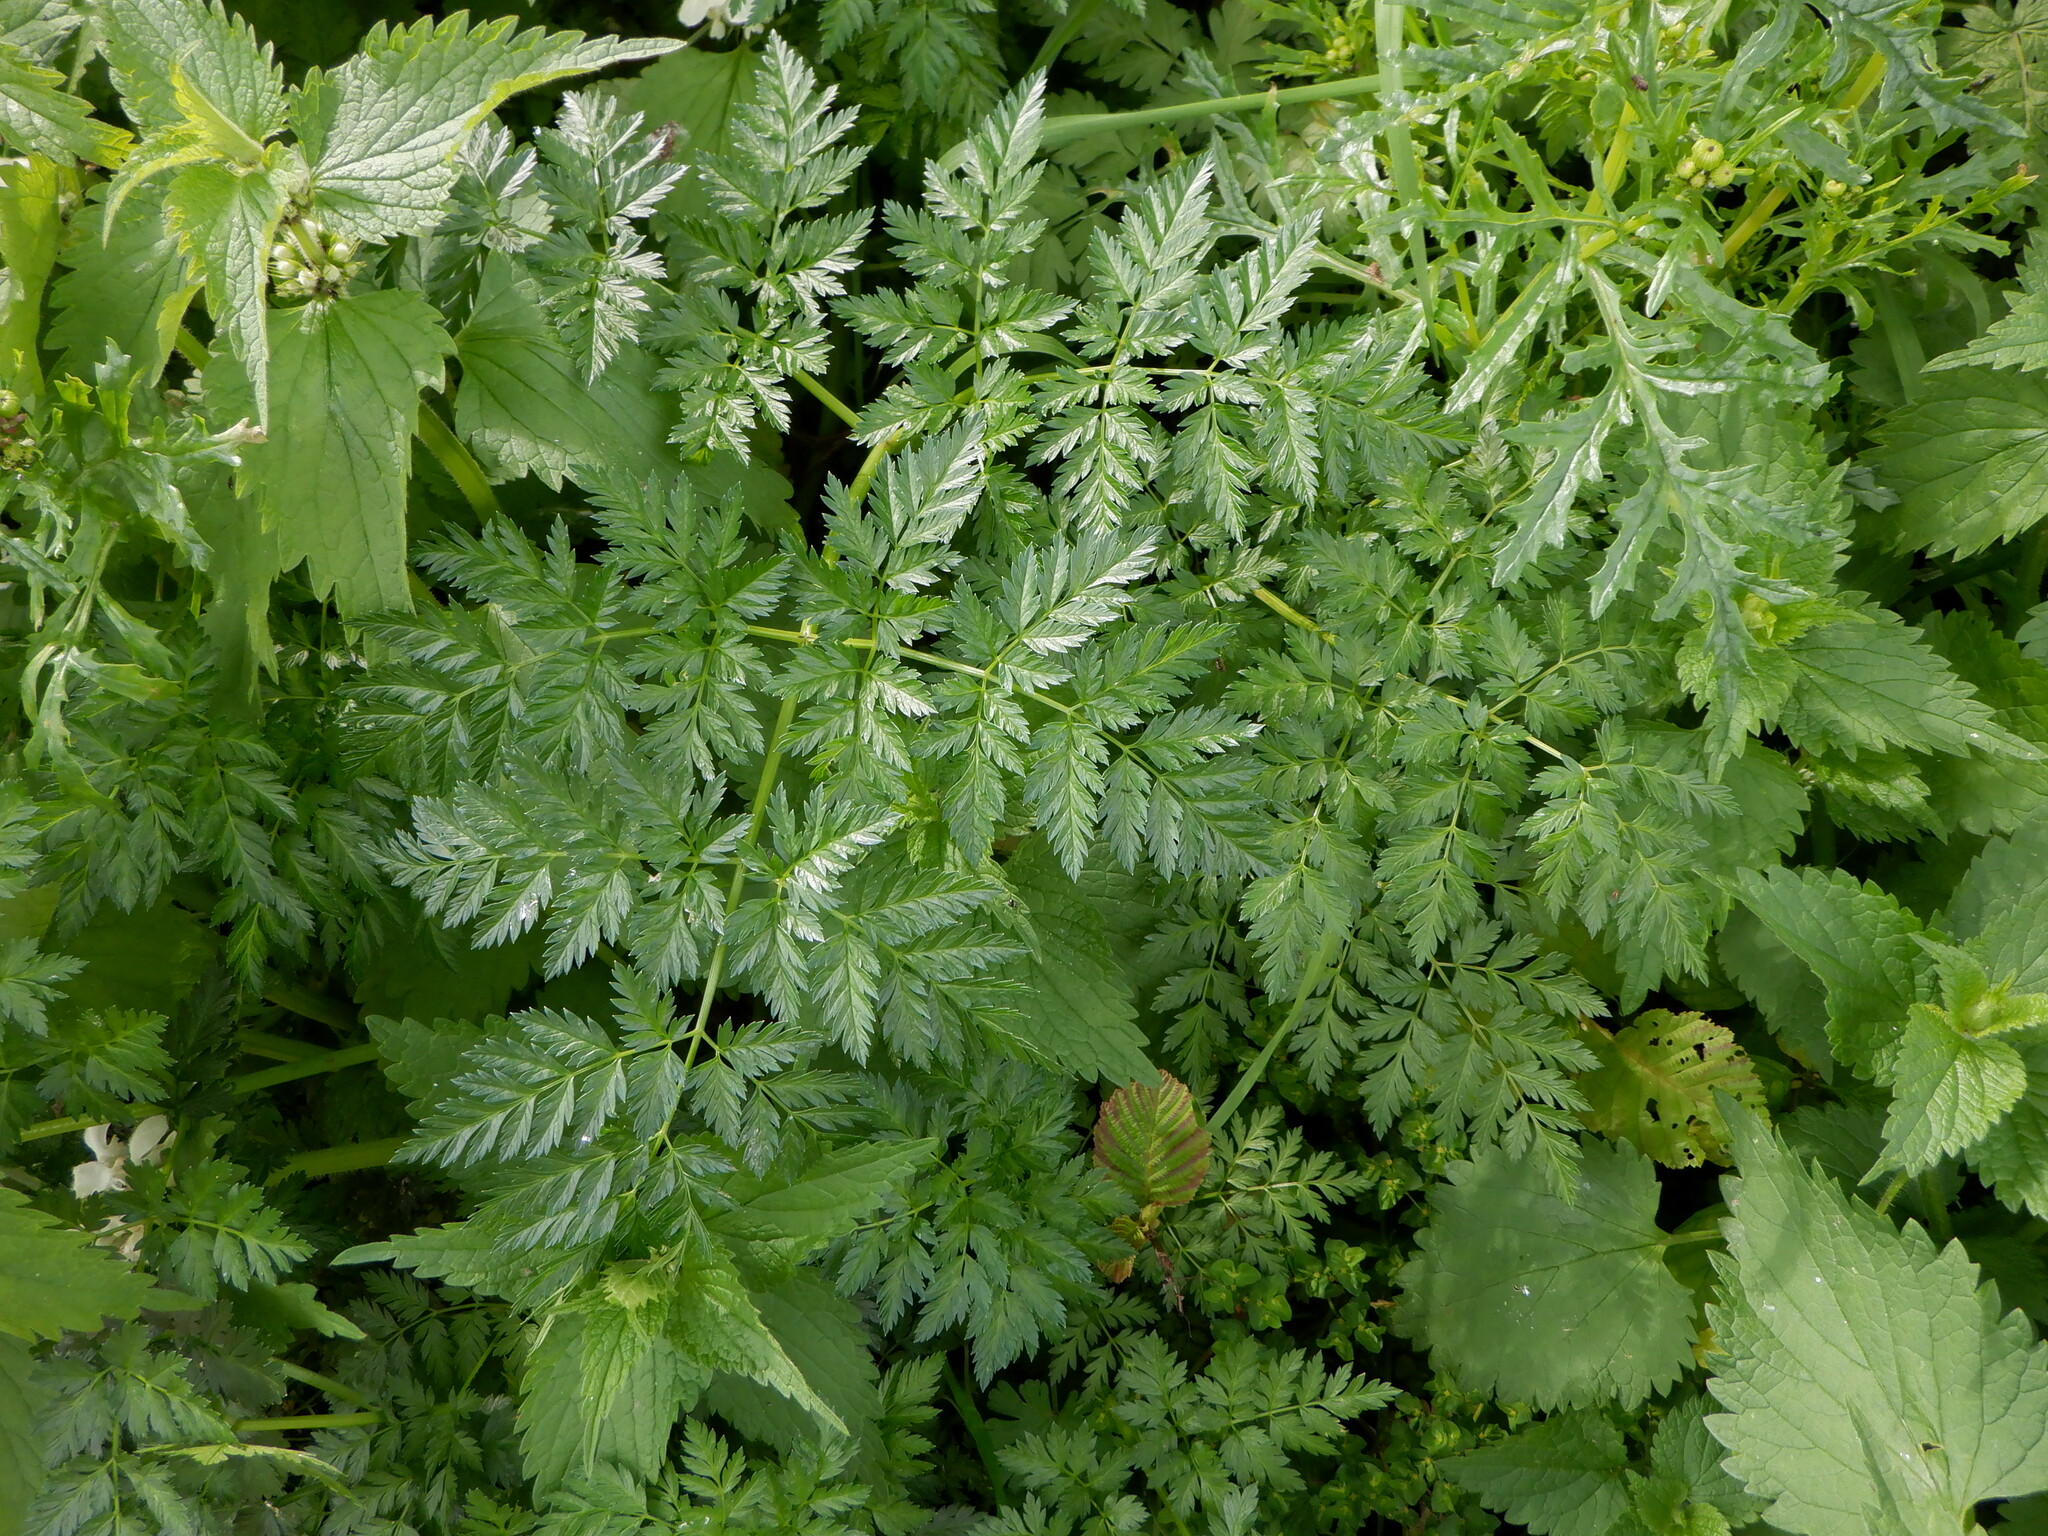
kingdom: Plantae
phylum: Tracheophyta
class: Magnoliopsida
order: Apiales
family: Apiaceae
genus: Conium
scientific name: Conium maculatum
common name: Hemlock
